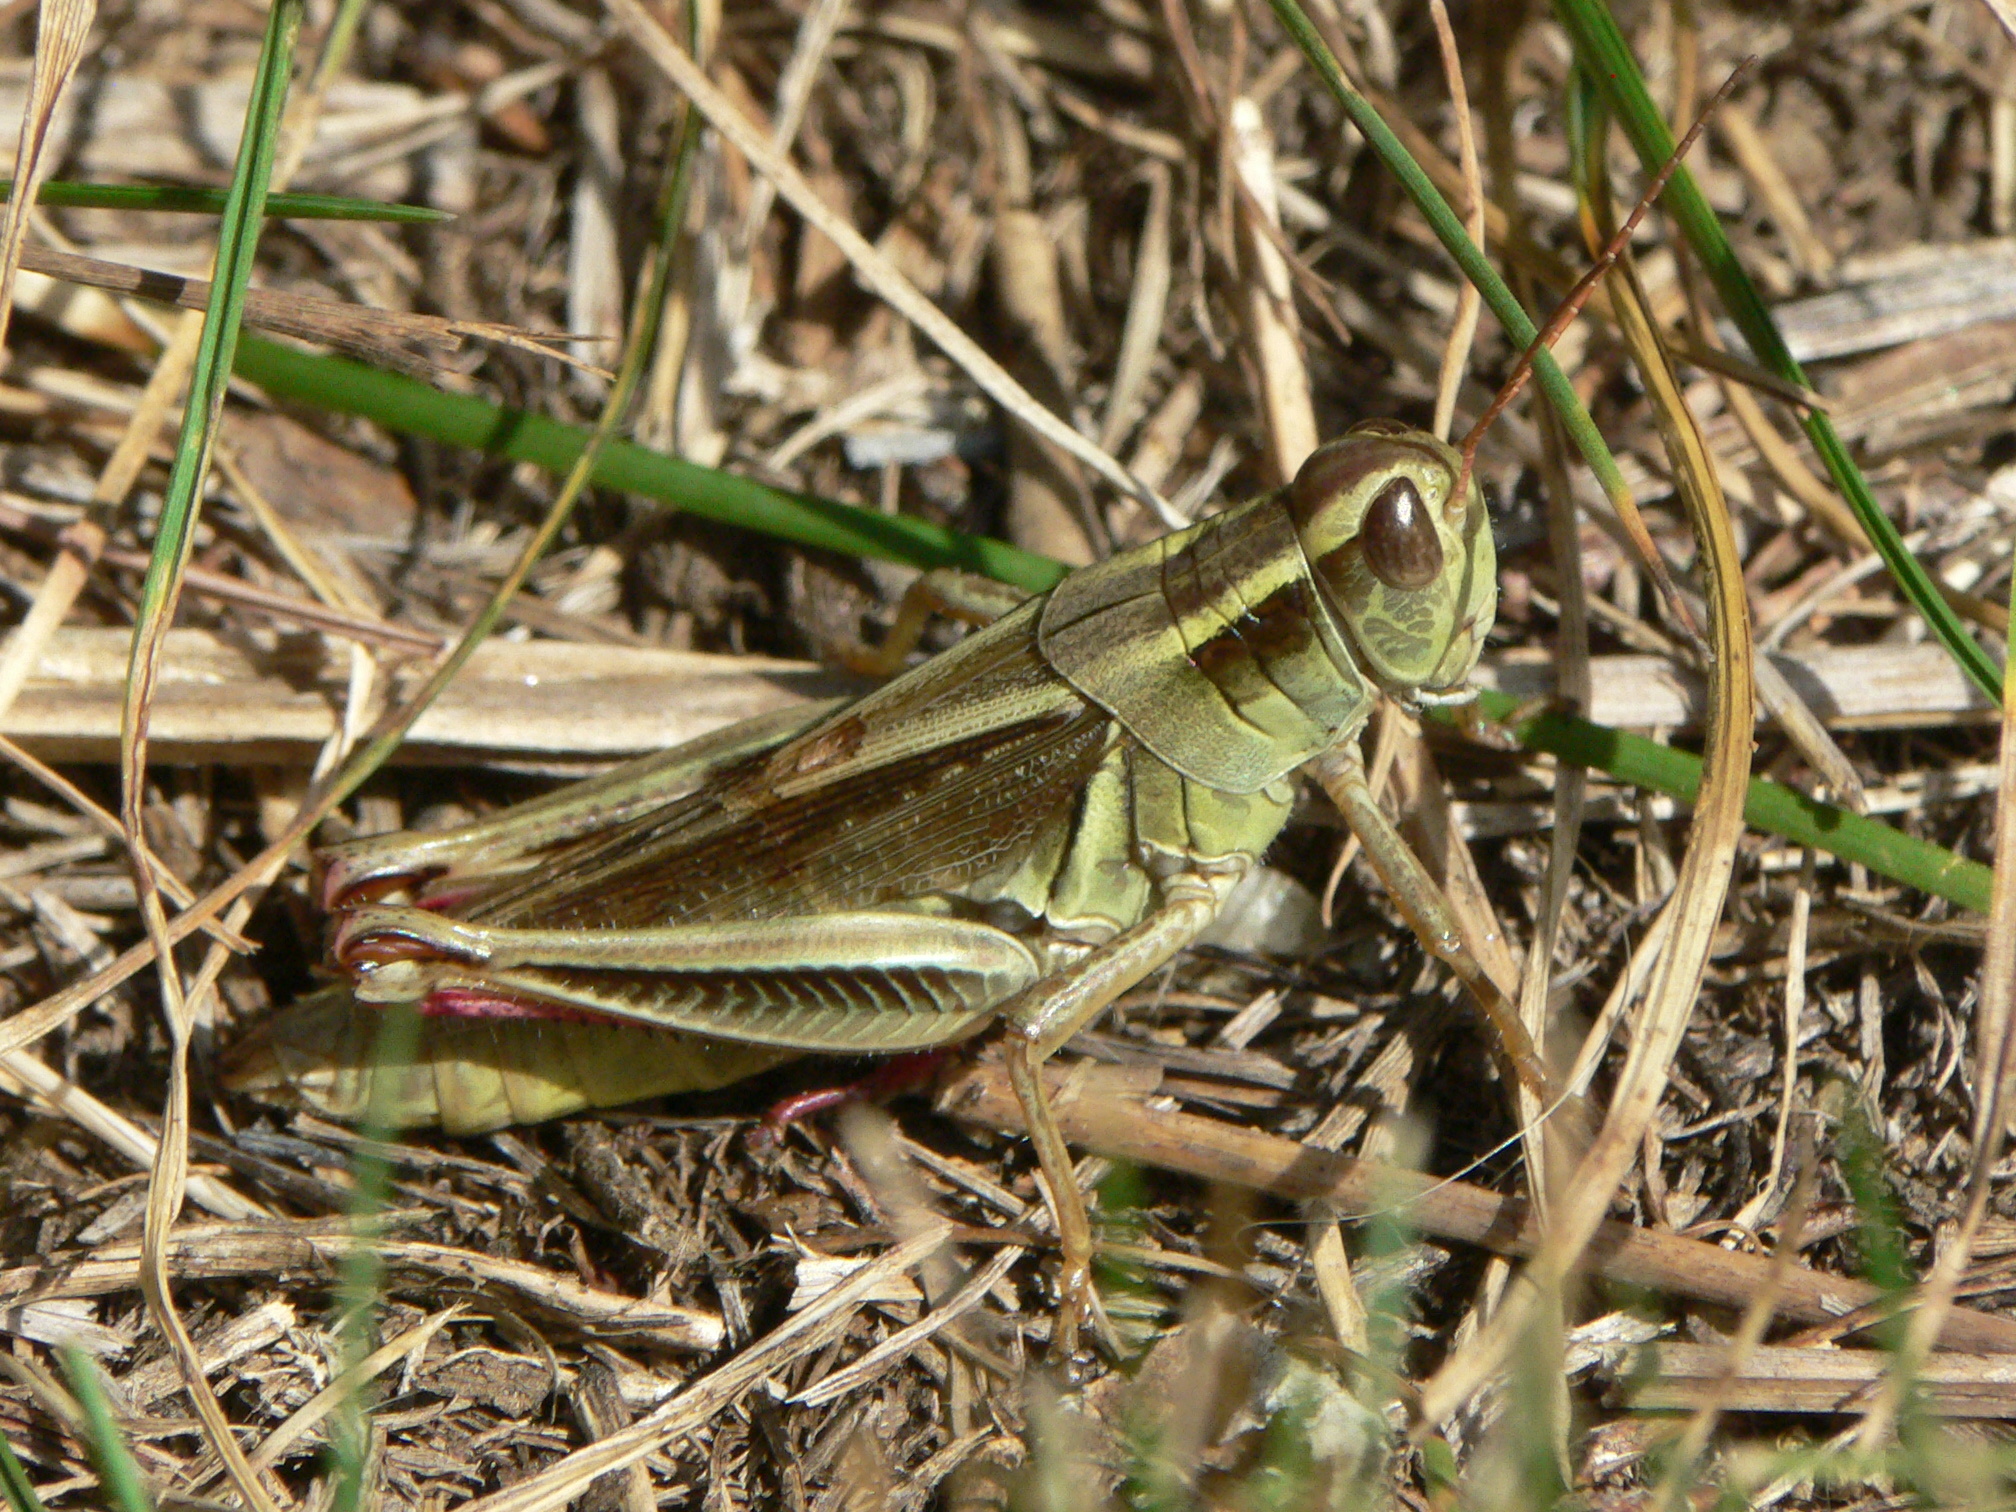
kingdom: Animalia
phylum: Arthropoda
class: Insecta
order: Orthoptera
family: Acrididae
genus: Melanoplus
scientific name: Melanoplus bivittatus
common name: Two-striped grasshopper
